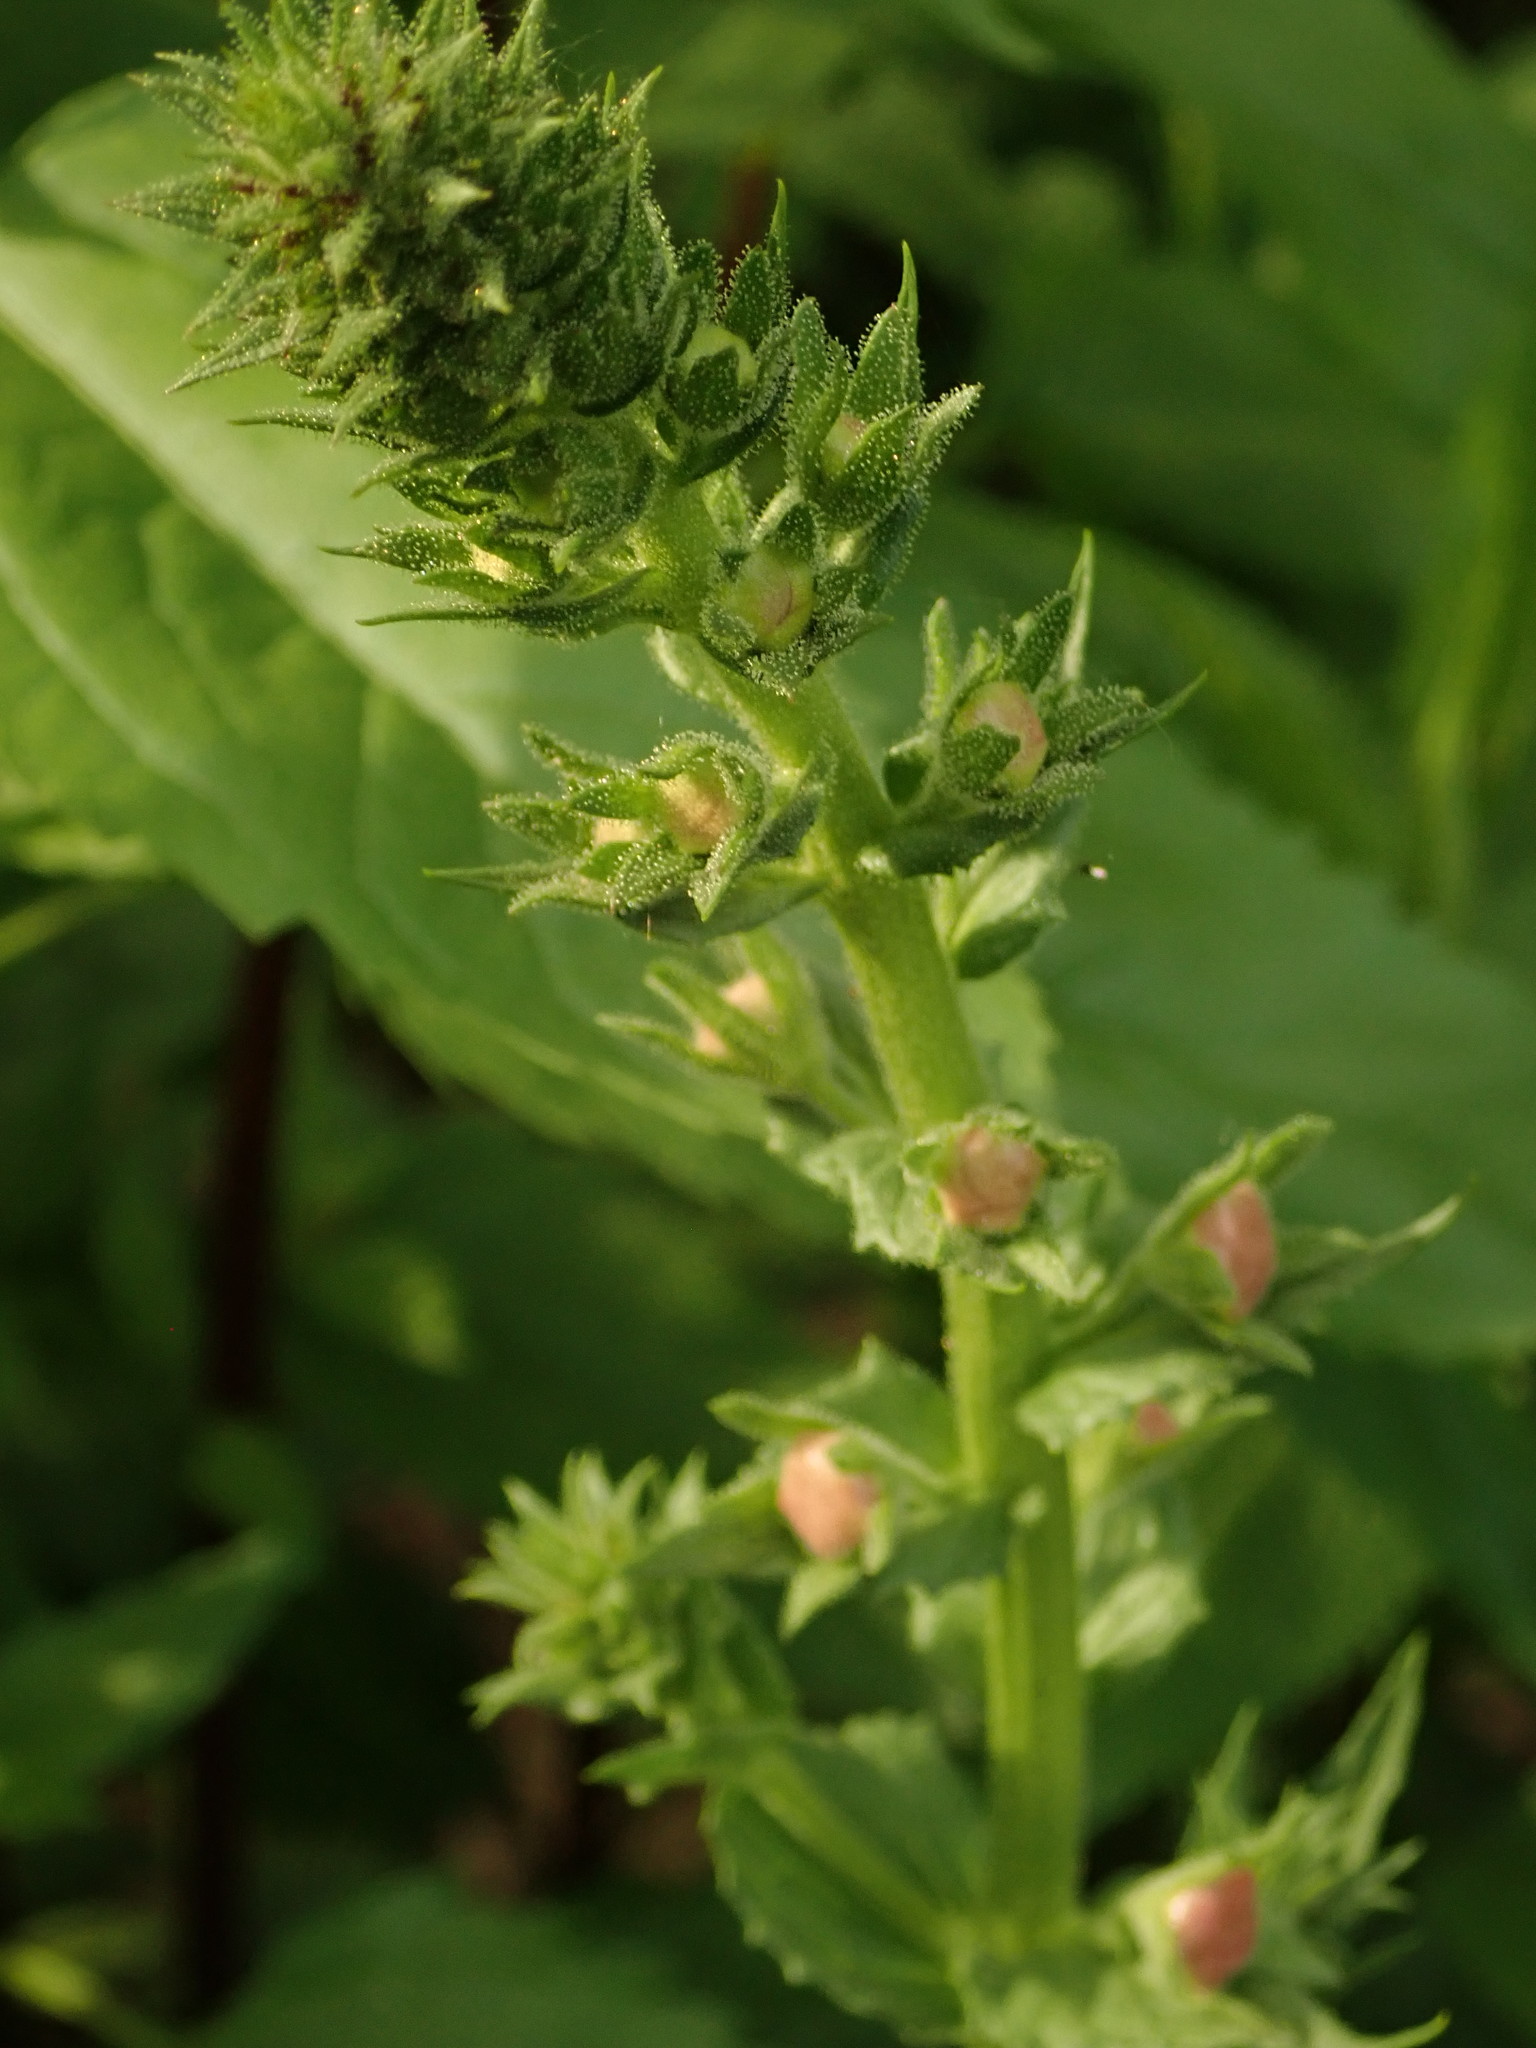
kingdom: Plantae
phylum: Tracheophyta
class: Magnoliopsida
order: Lamiales
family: Scrophulariaceae
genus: Verbascum
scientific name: Verbascum blattaria
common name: Moth mullein
